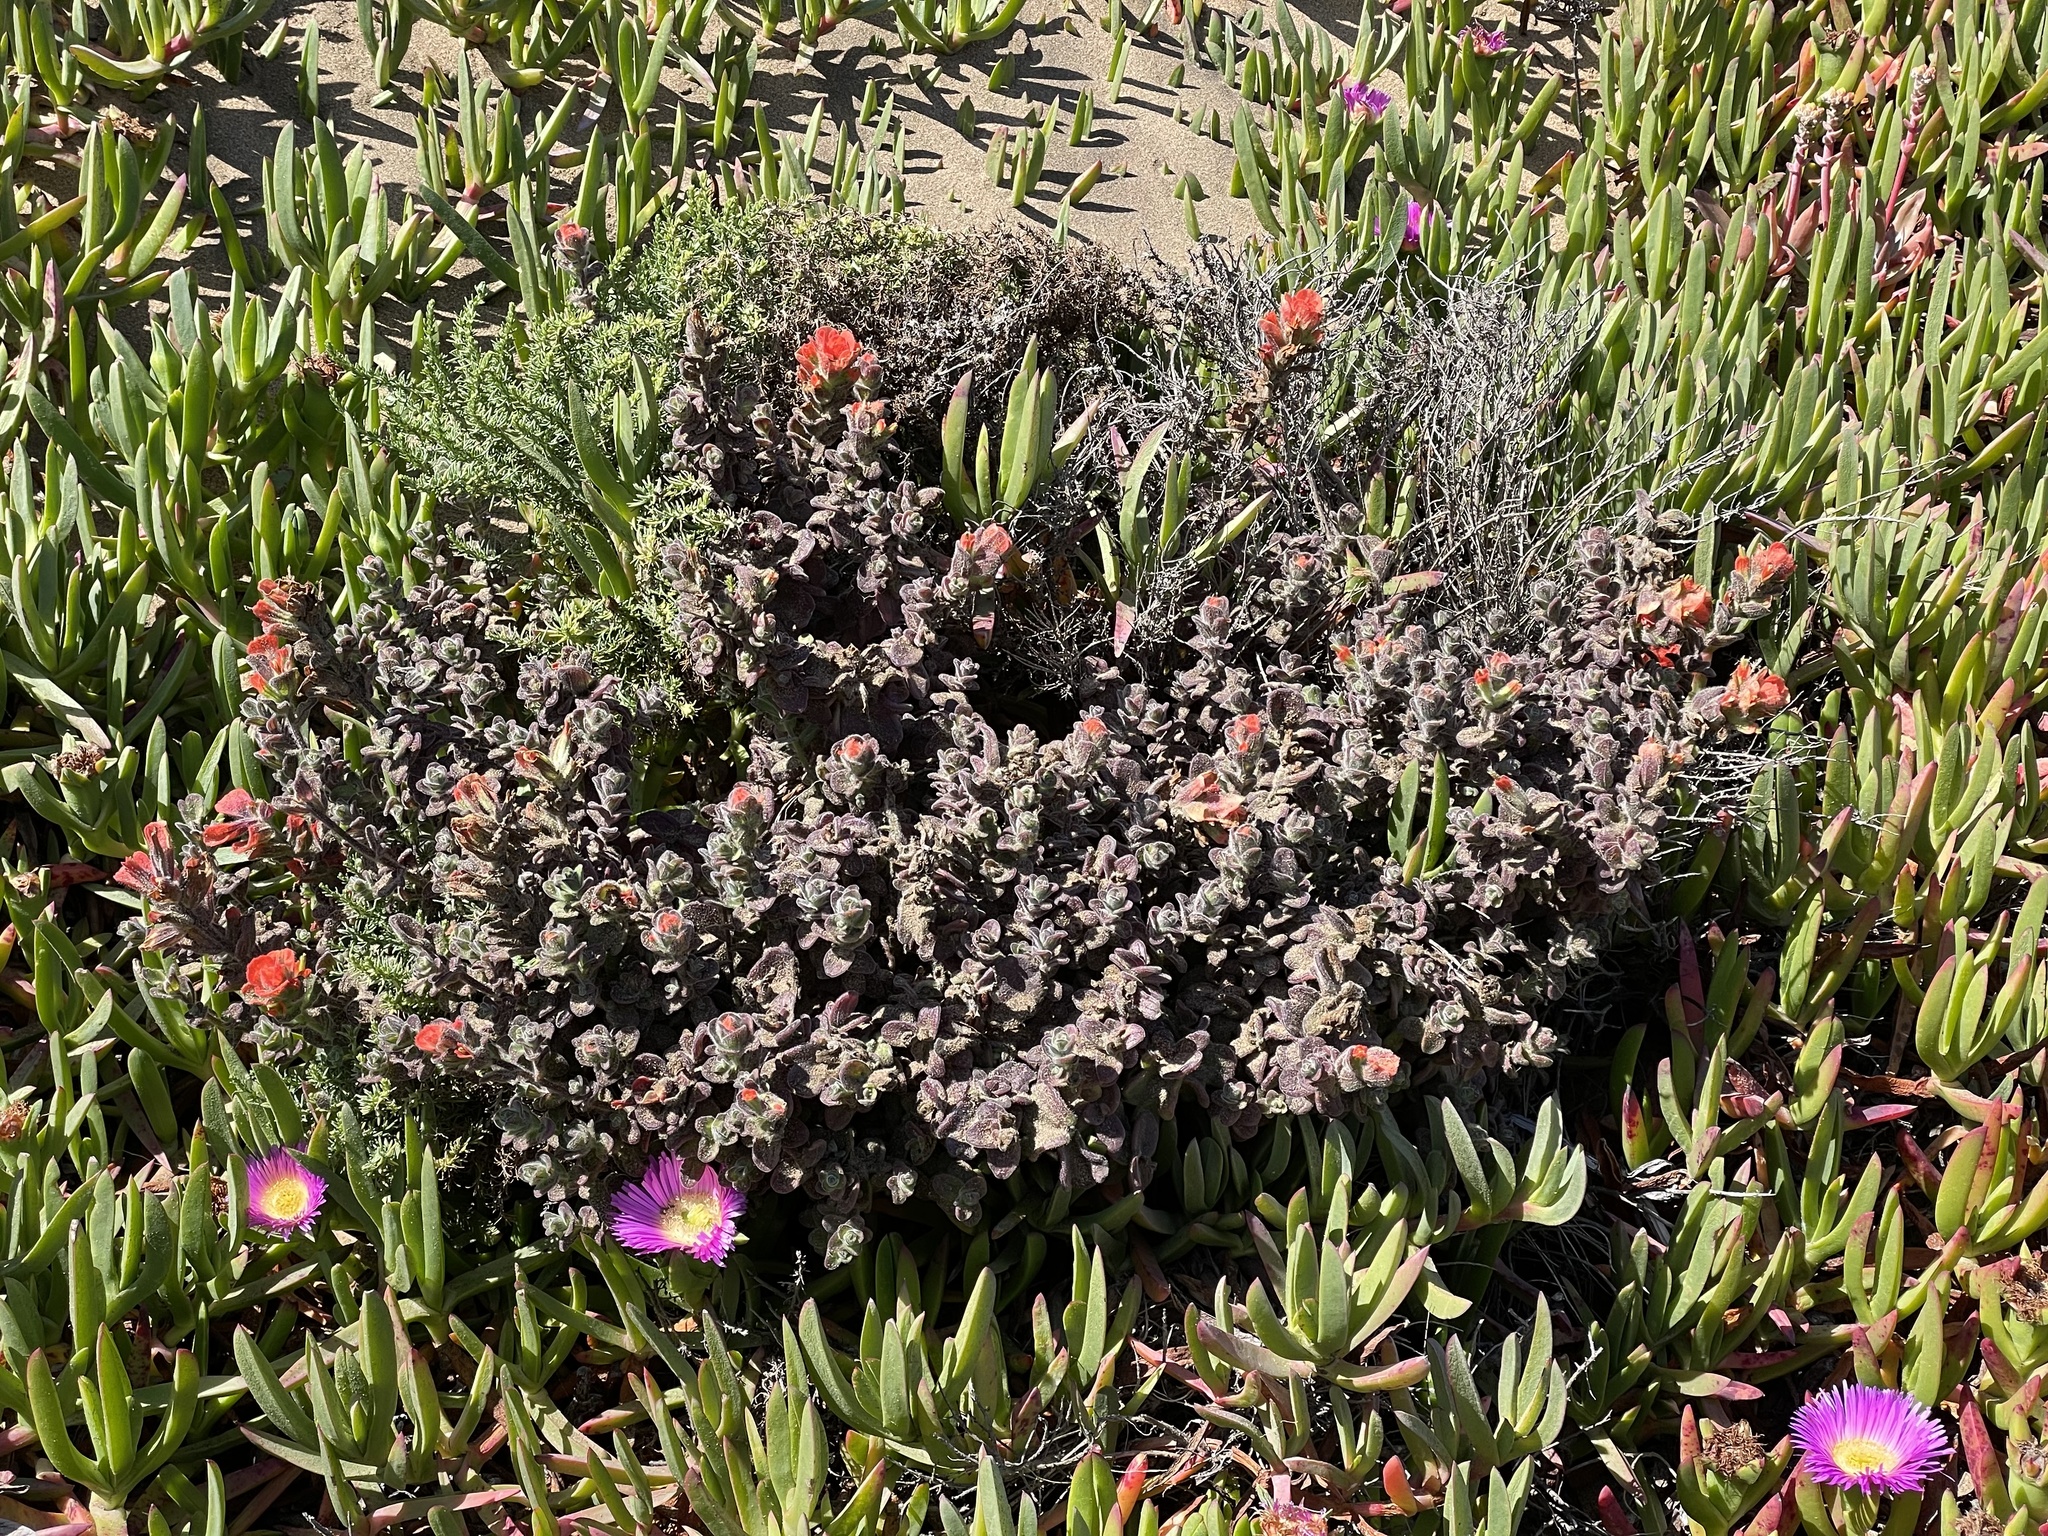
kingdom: Plantae
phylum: Tracheophyta
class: Magnoliopsida
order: Lamiales
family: Orobanchaceae
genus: Castilleja
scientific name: Castilleja latifolia
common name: Monterey indian paintbrush
